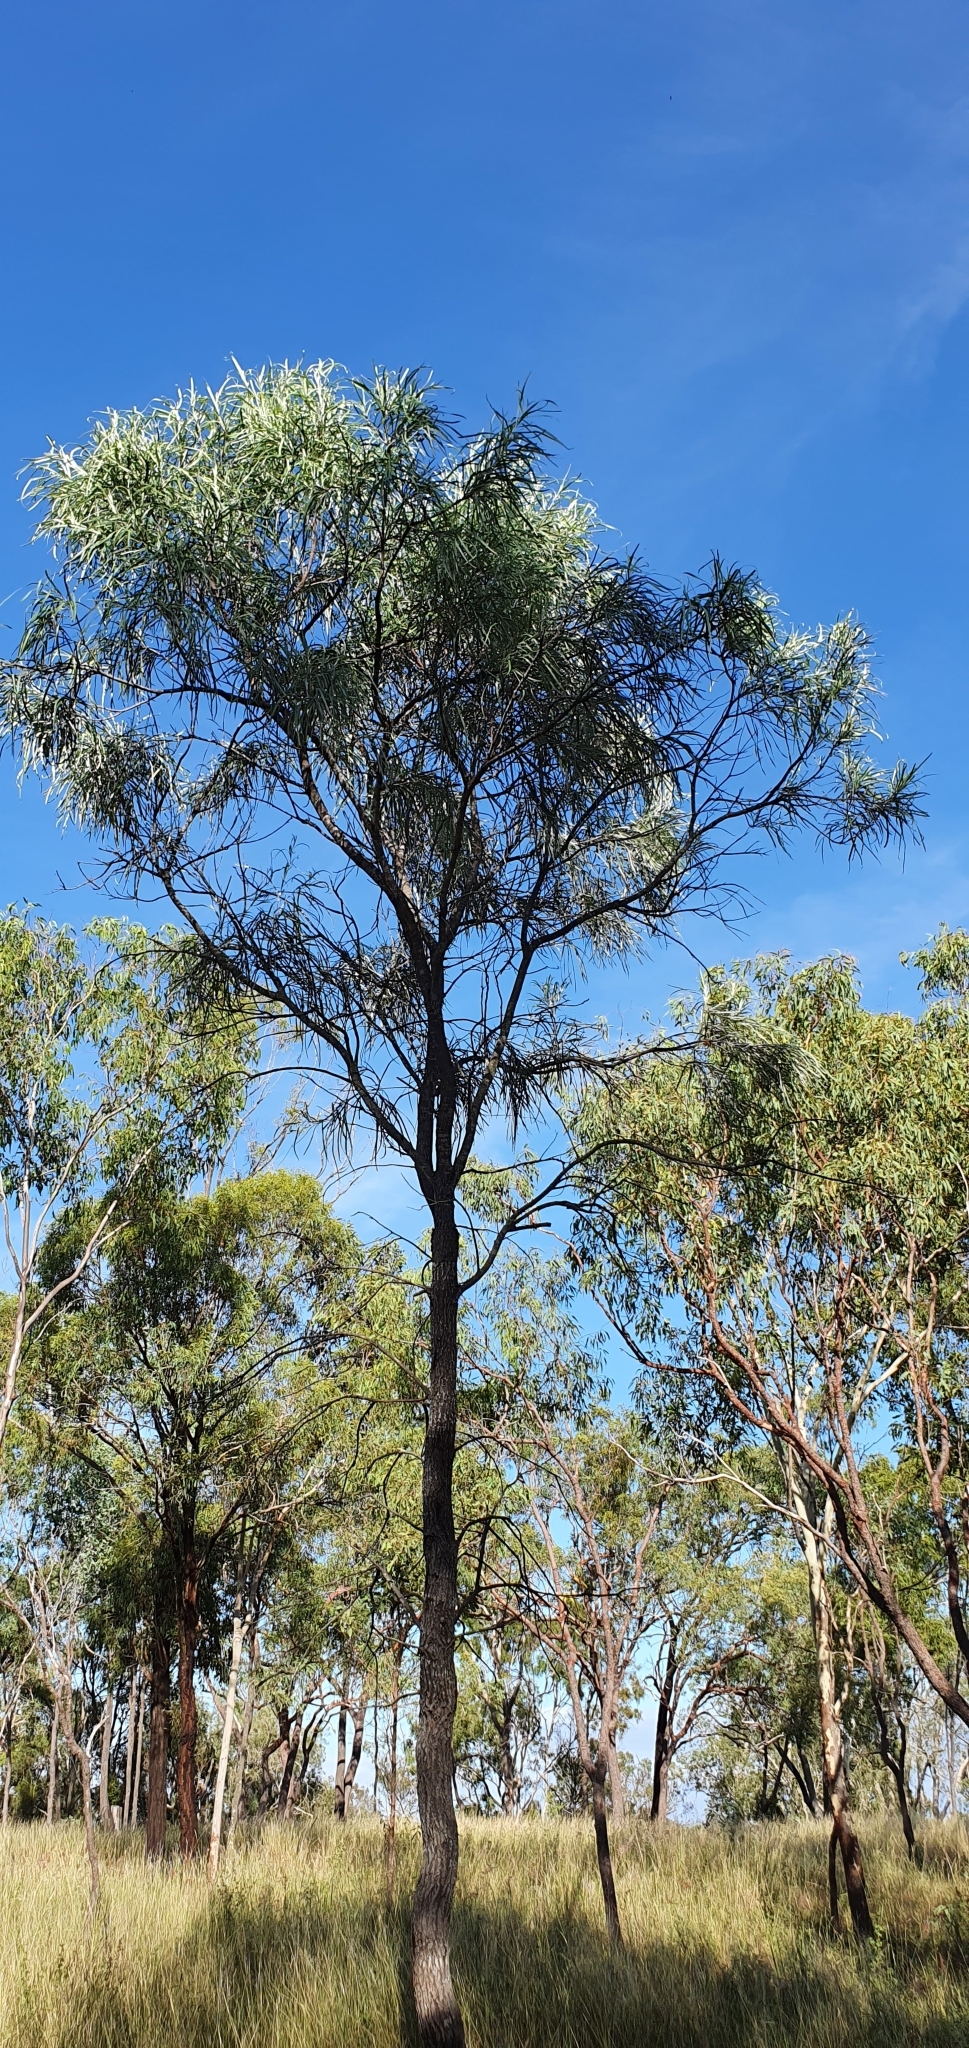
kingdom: Plantae
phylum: Tracheophyta
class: Magnoliopsida
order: Proteales
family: Proteaceae
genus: Grevillea
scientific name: Grevillea striata
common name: Beefwood
